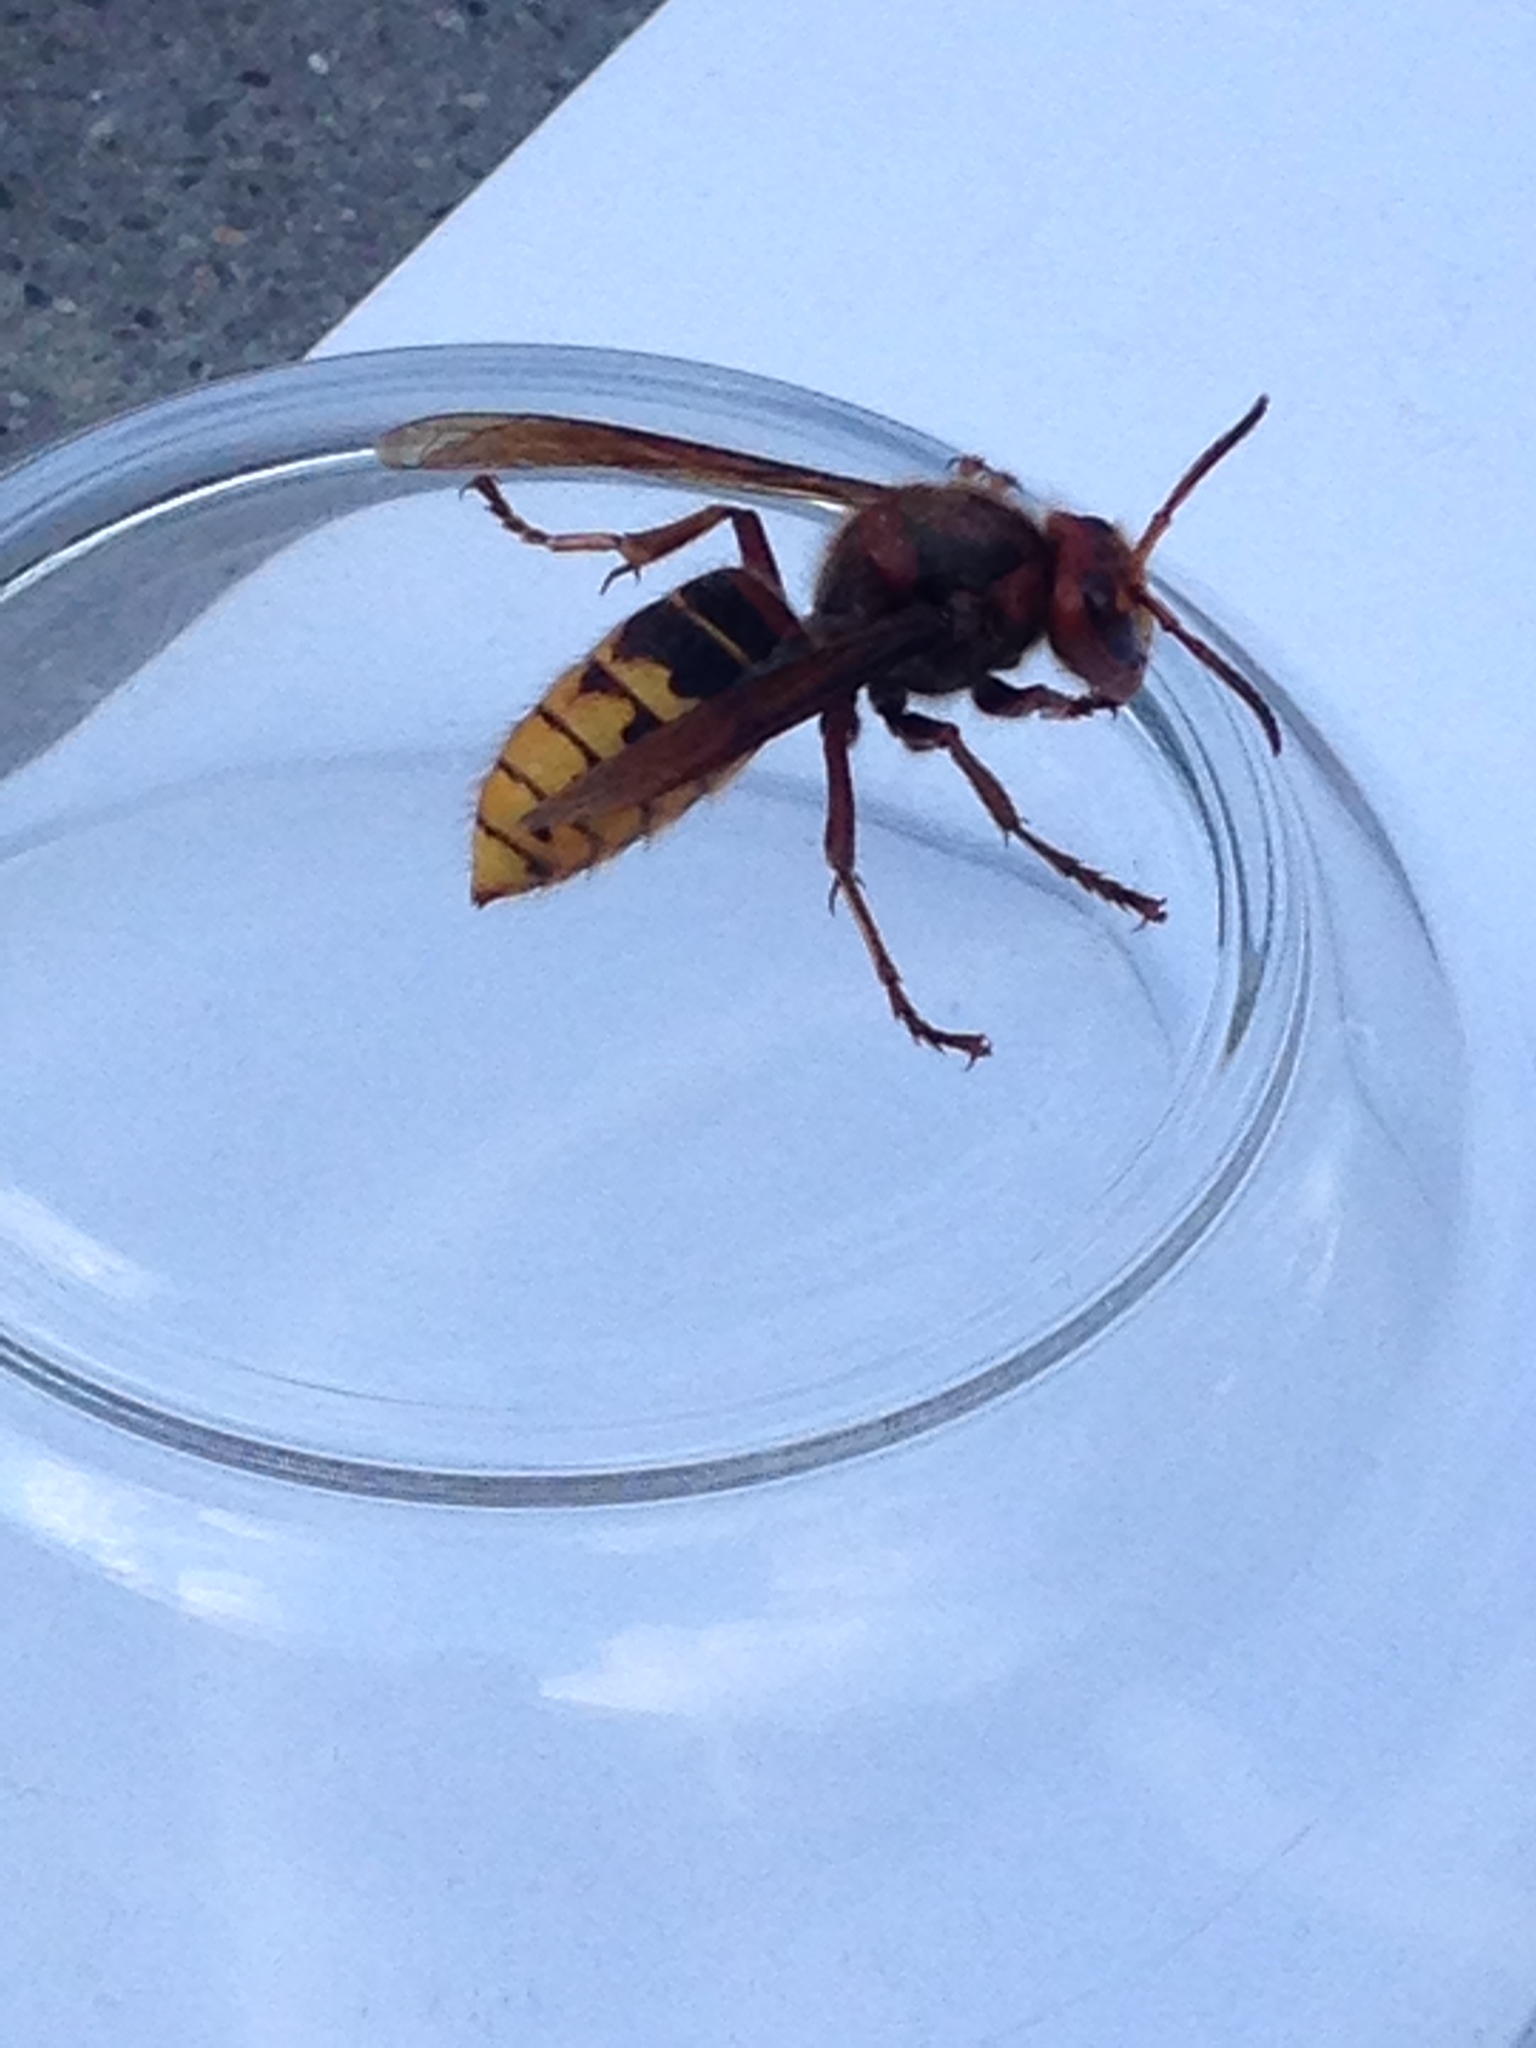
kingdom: Animalia
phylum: Arthropoda
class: Insecta
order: Hymenoptera
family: Vespidae
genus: Vespa
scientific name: Vespa crabro
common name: Hornet
